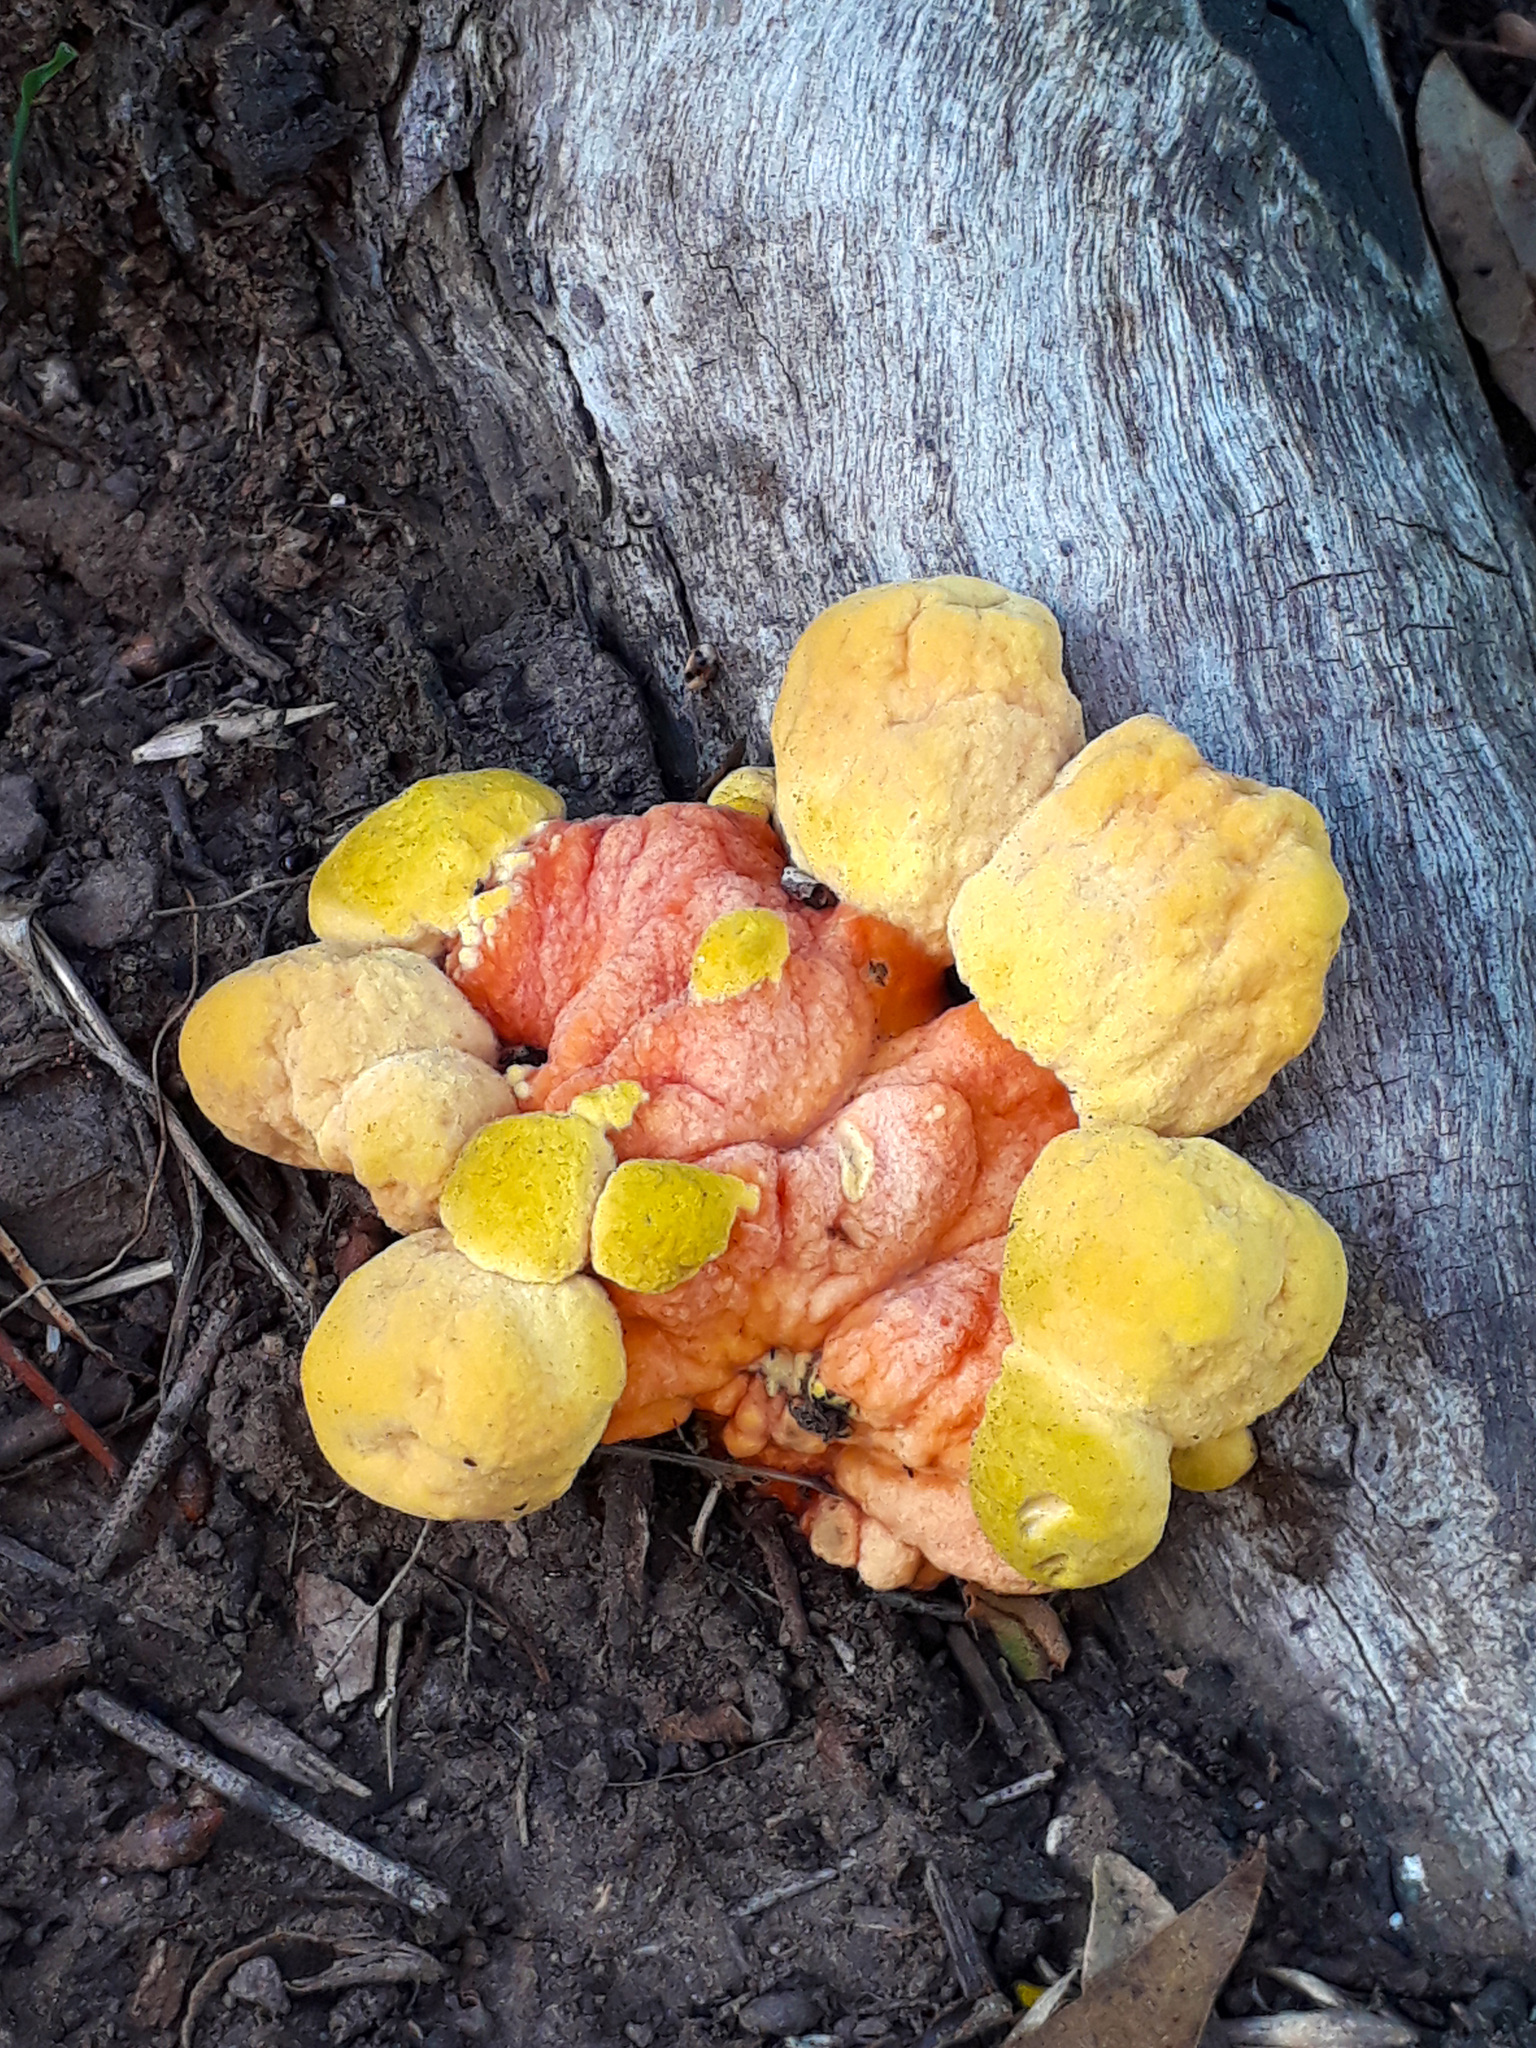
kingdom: Fungi
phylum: Basidiomycota
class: Agaricomycetes
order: Polyporales
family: Laetiporaceae
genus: Laetiporus
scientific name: Laetiporus sulphureus
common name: Chicken of the woods
